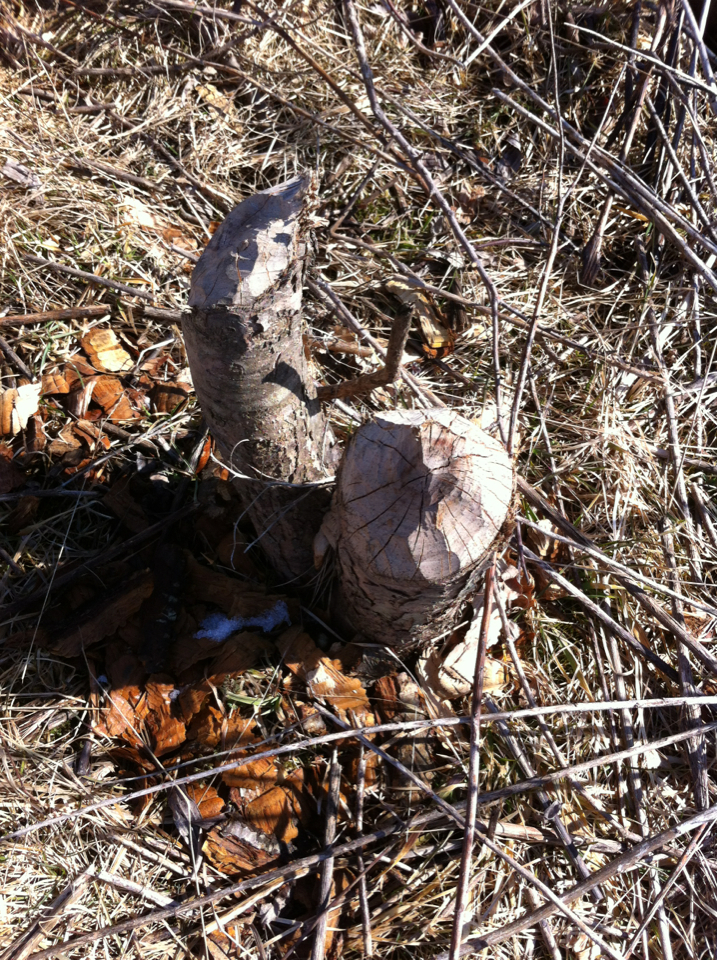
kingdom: Animalia
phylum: Chordata
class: Mammalia
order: Rodentia
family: Castoridae
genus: Castor
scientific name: Castor canadensis
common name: American beaver
